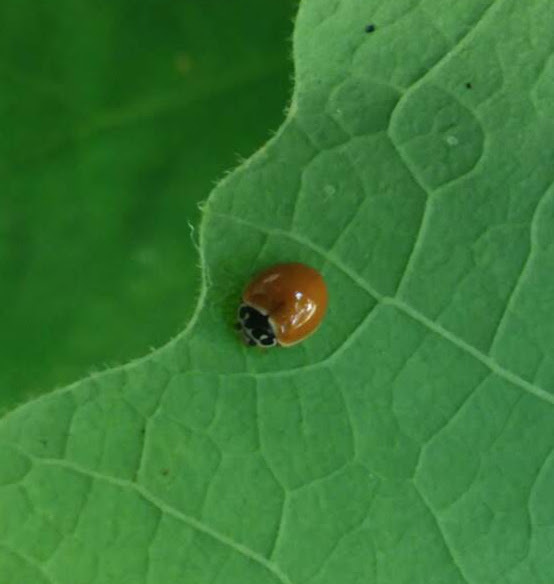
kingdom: Animalia
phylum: Arthropoda
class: Insecta
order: Coleoptera
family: Coccinellidae
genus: Cycloneda
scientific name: Cycloneda munda
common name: Polished lady beetle
